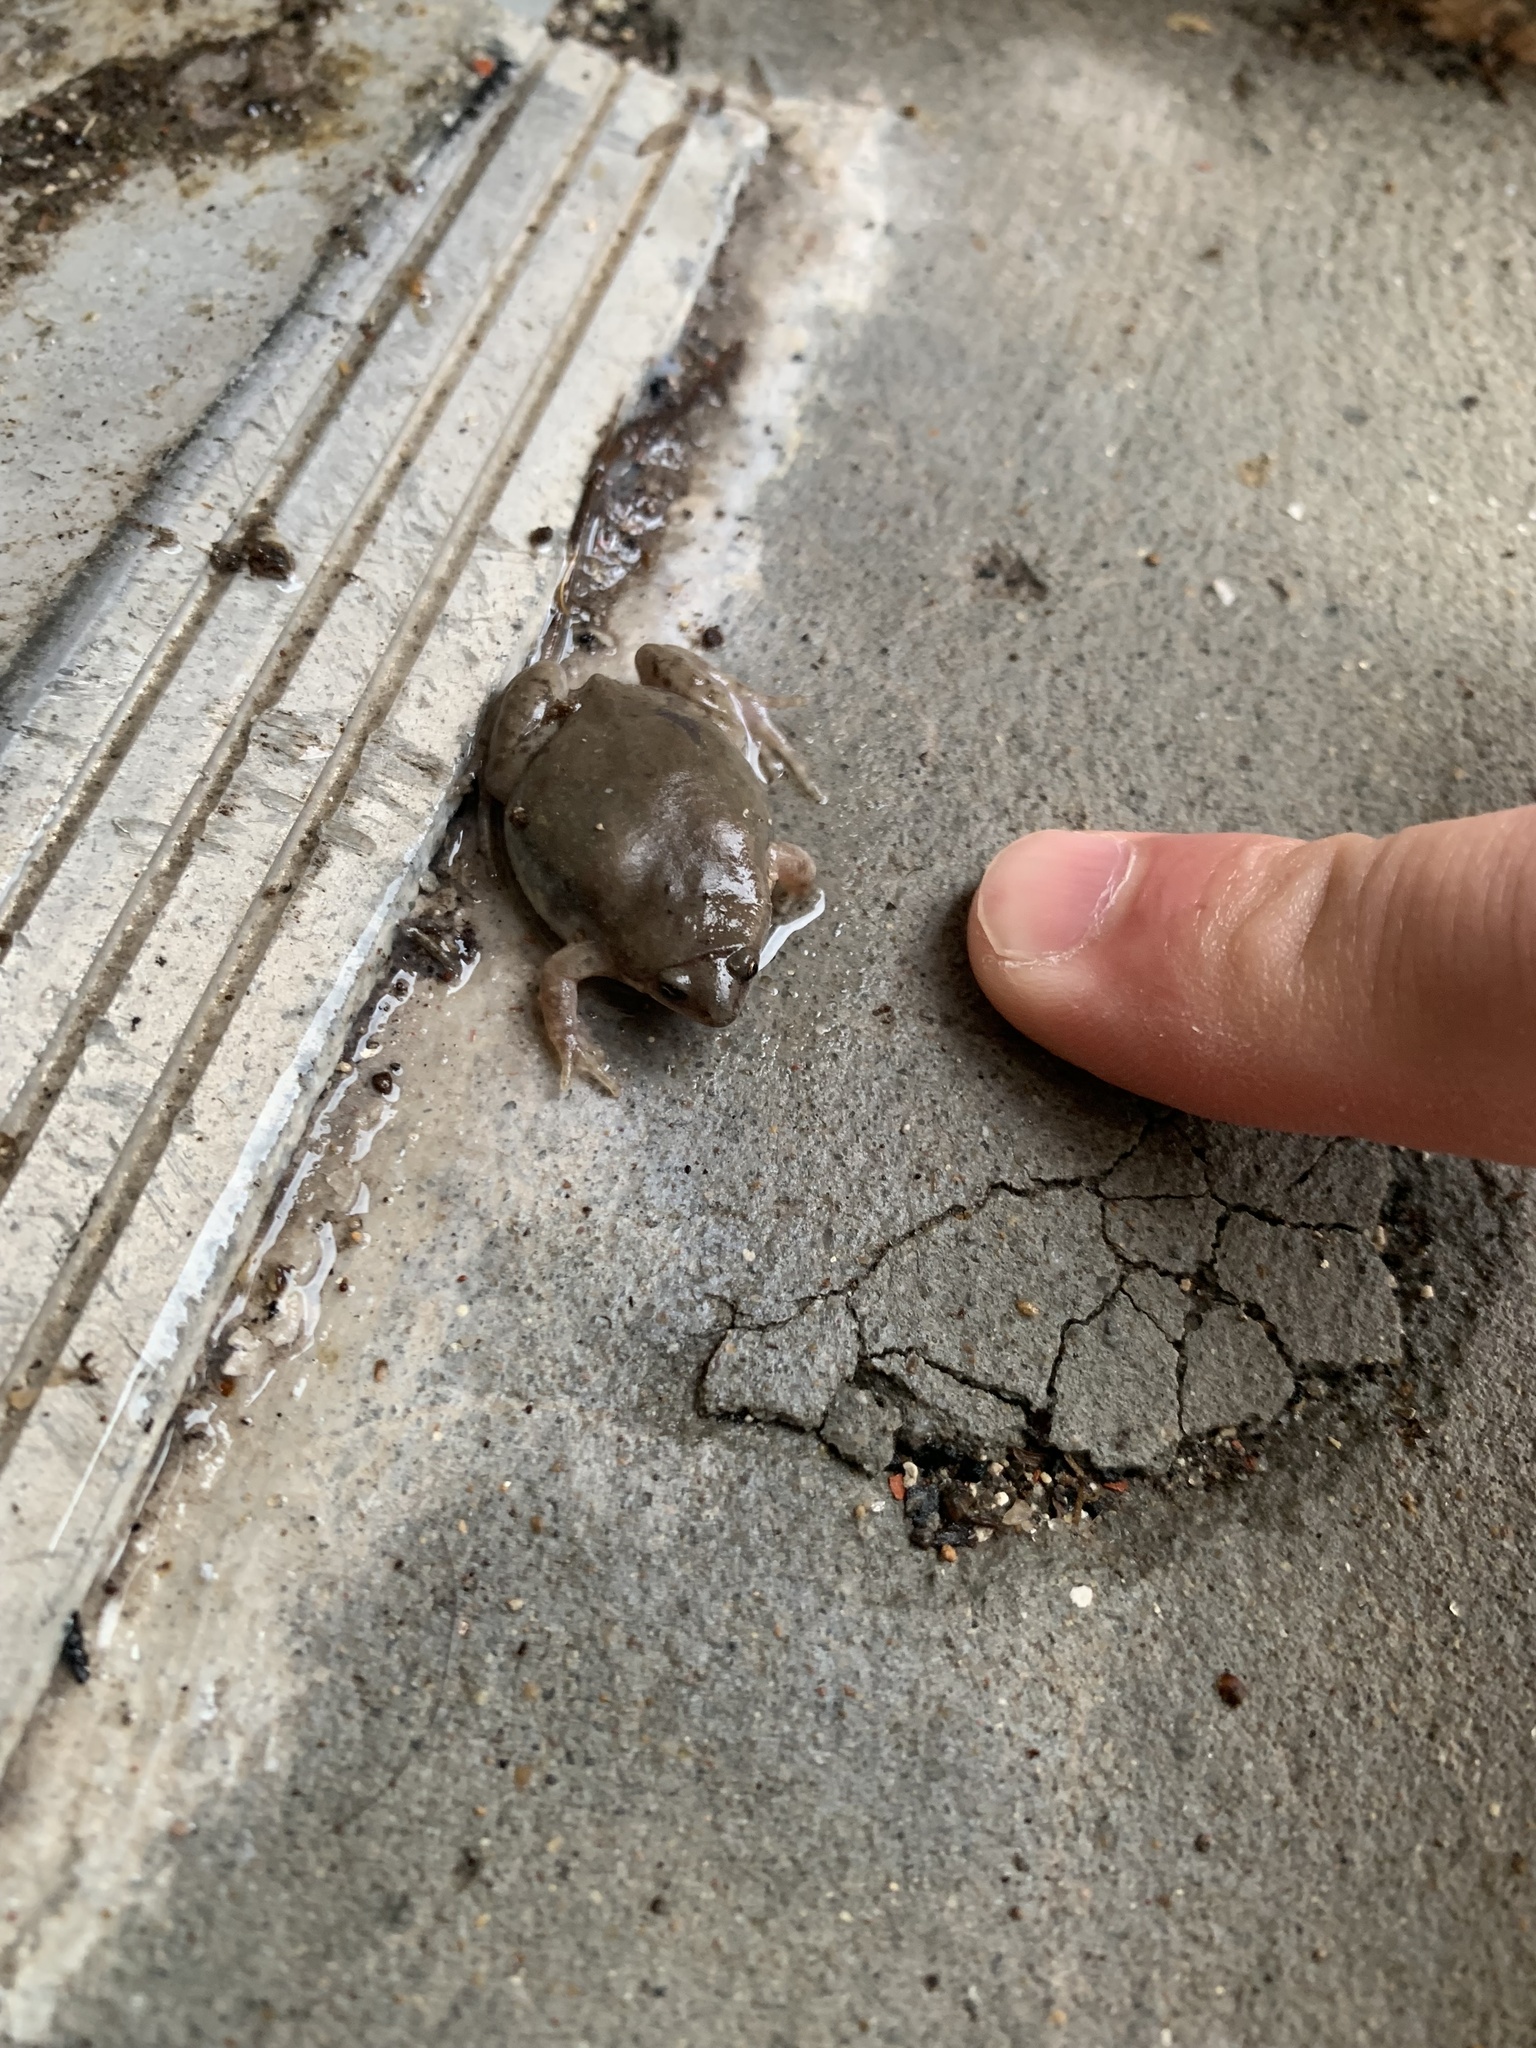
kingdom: Animalia
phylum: Chordata
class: Amphibia
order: Anura
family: Microhylidae
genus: Gastrophryne
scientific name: Gastrophryne olivacea
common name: Great plains narrow-mouthed toad
